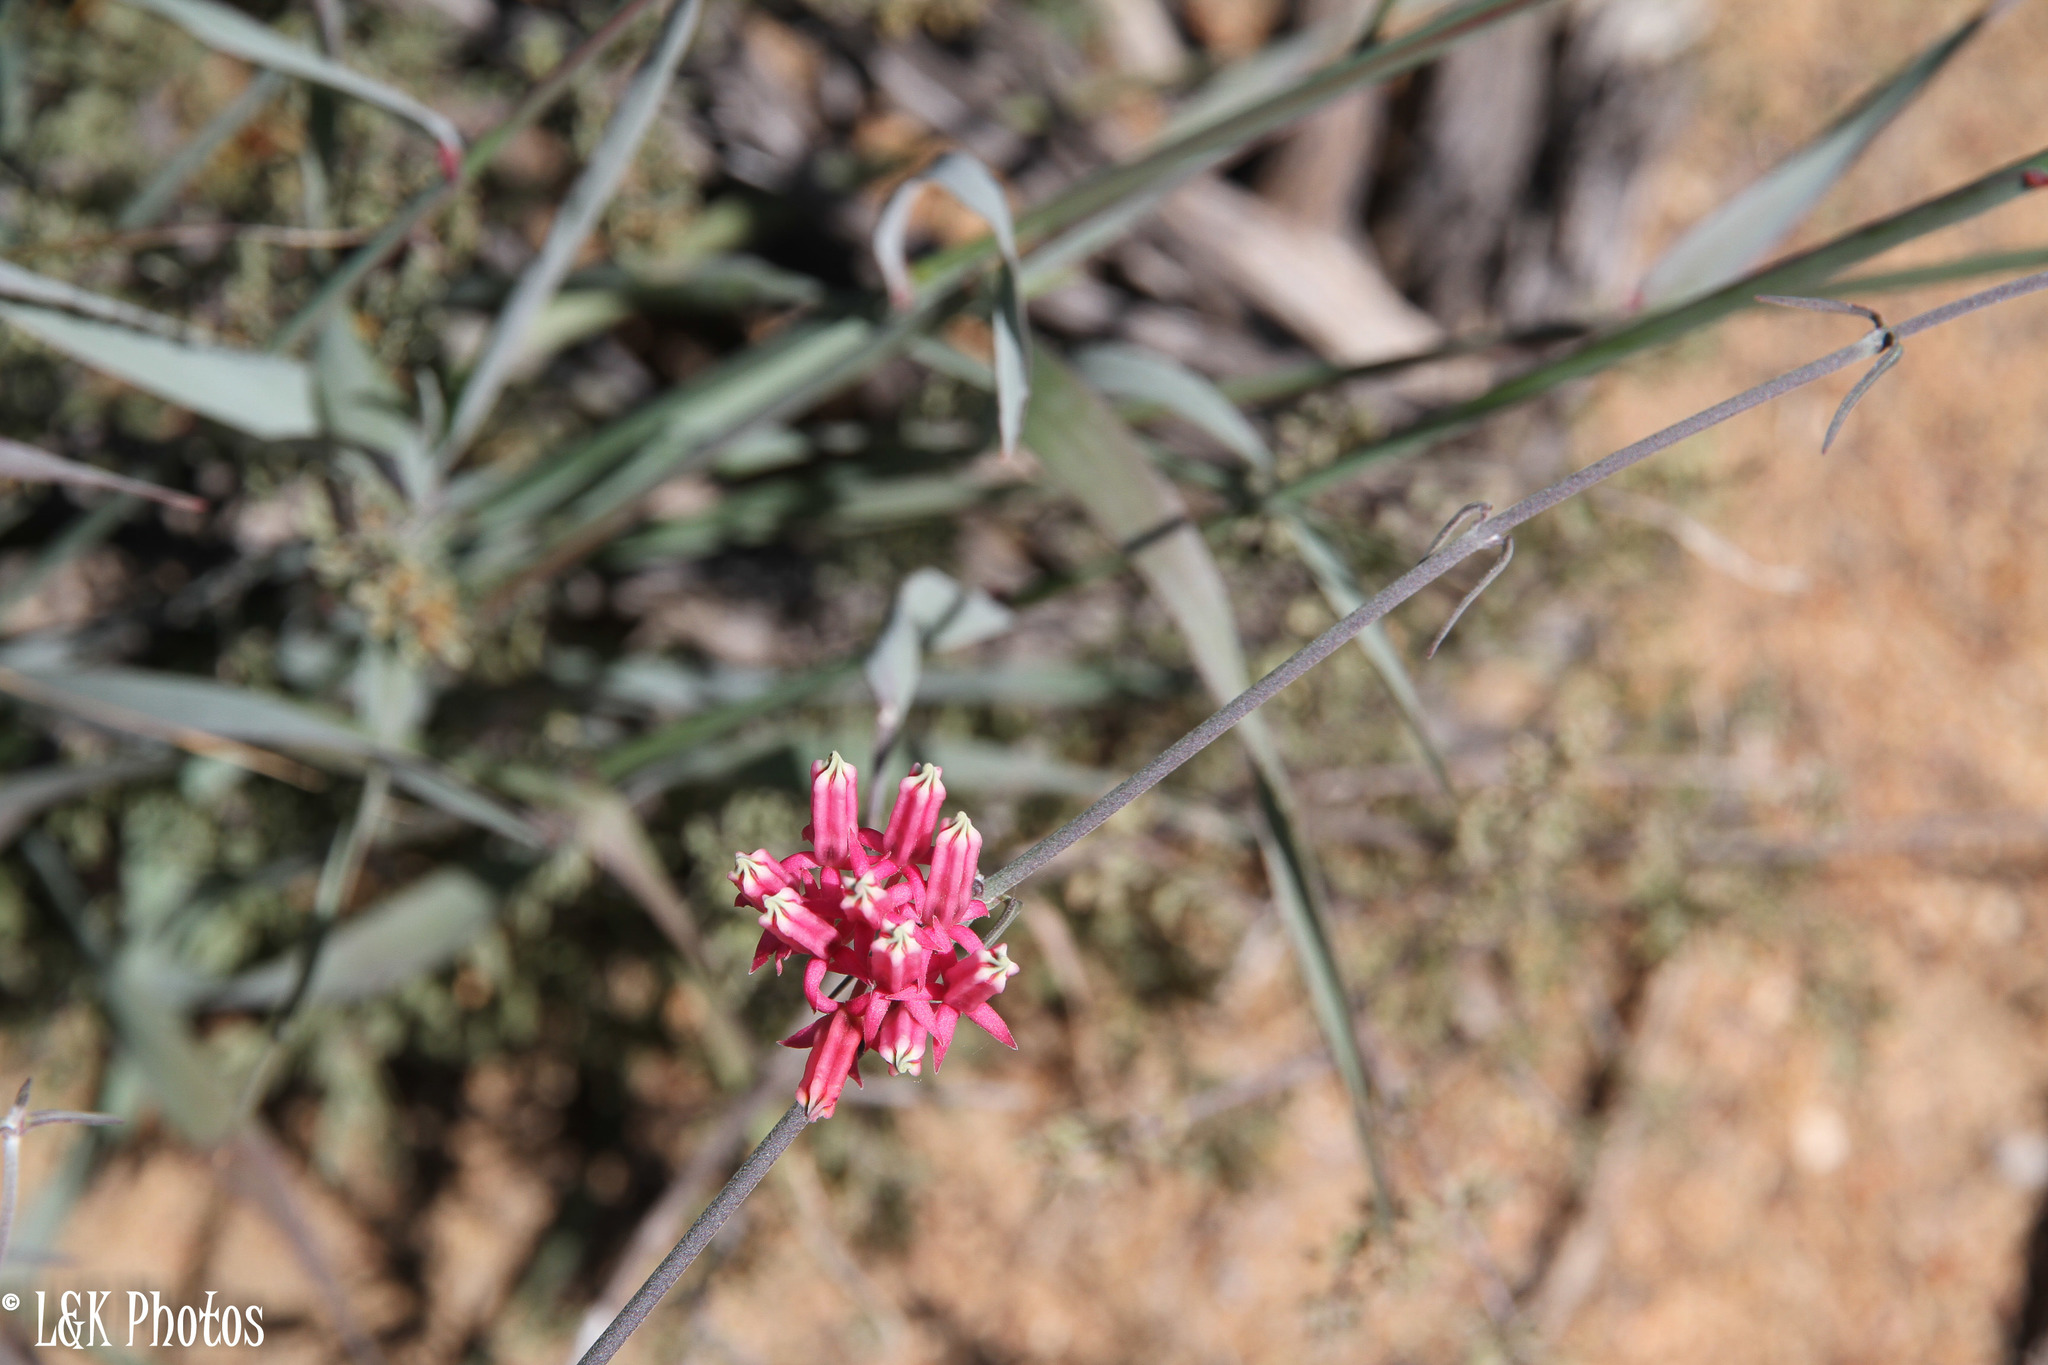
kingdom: Plantae
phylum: Tracheophyta
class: Magnoliopsida
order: Gentianales
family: Apocynaceae
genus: Microloma
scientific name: Microloma sagittatum
